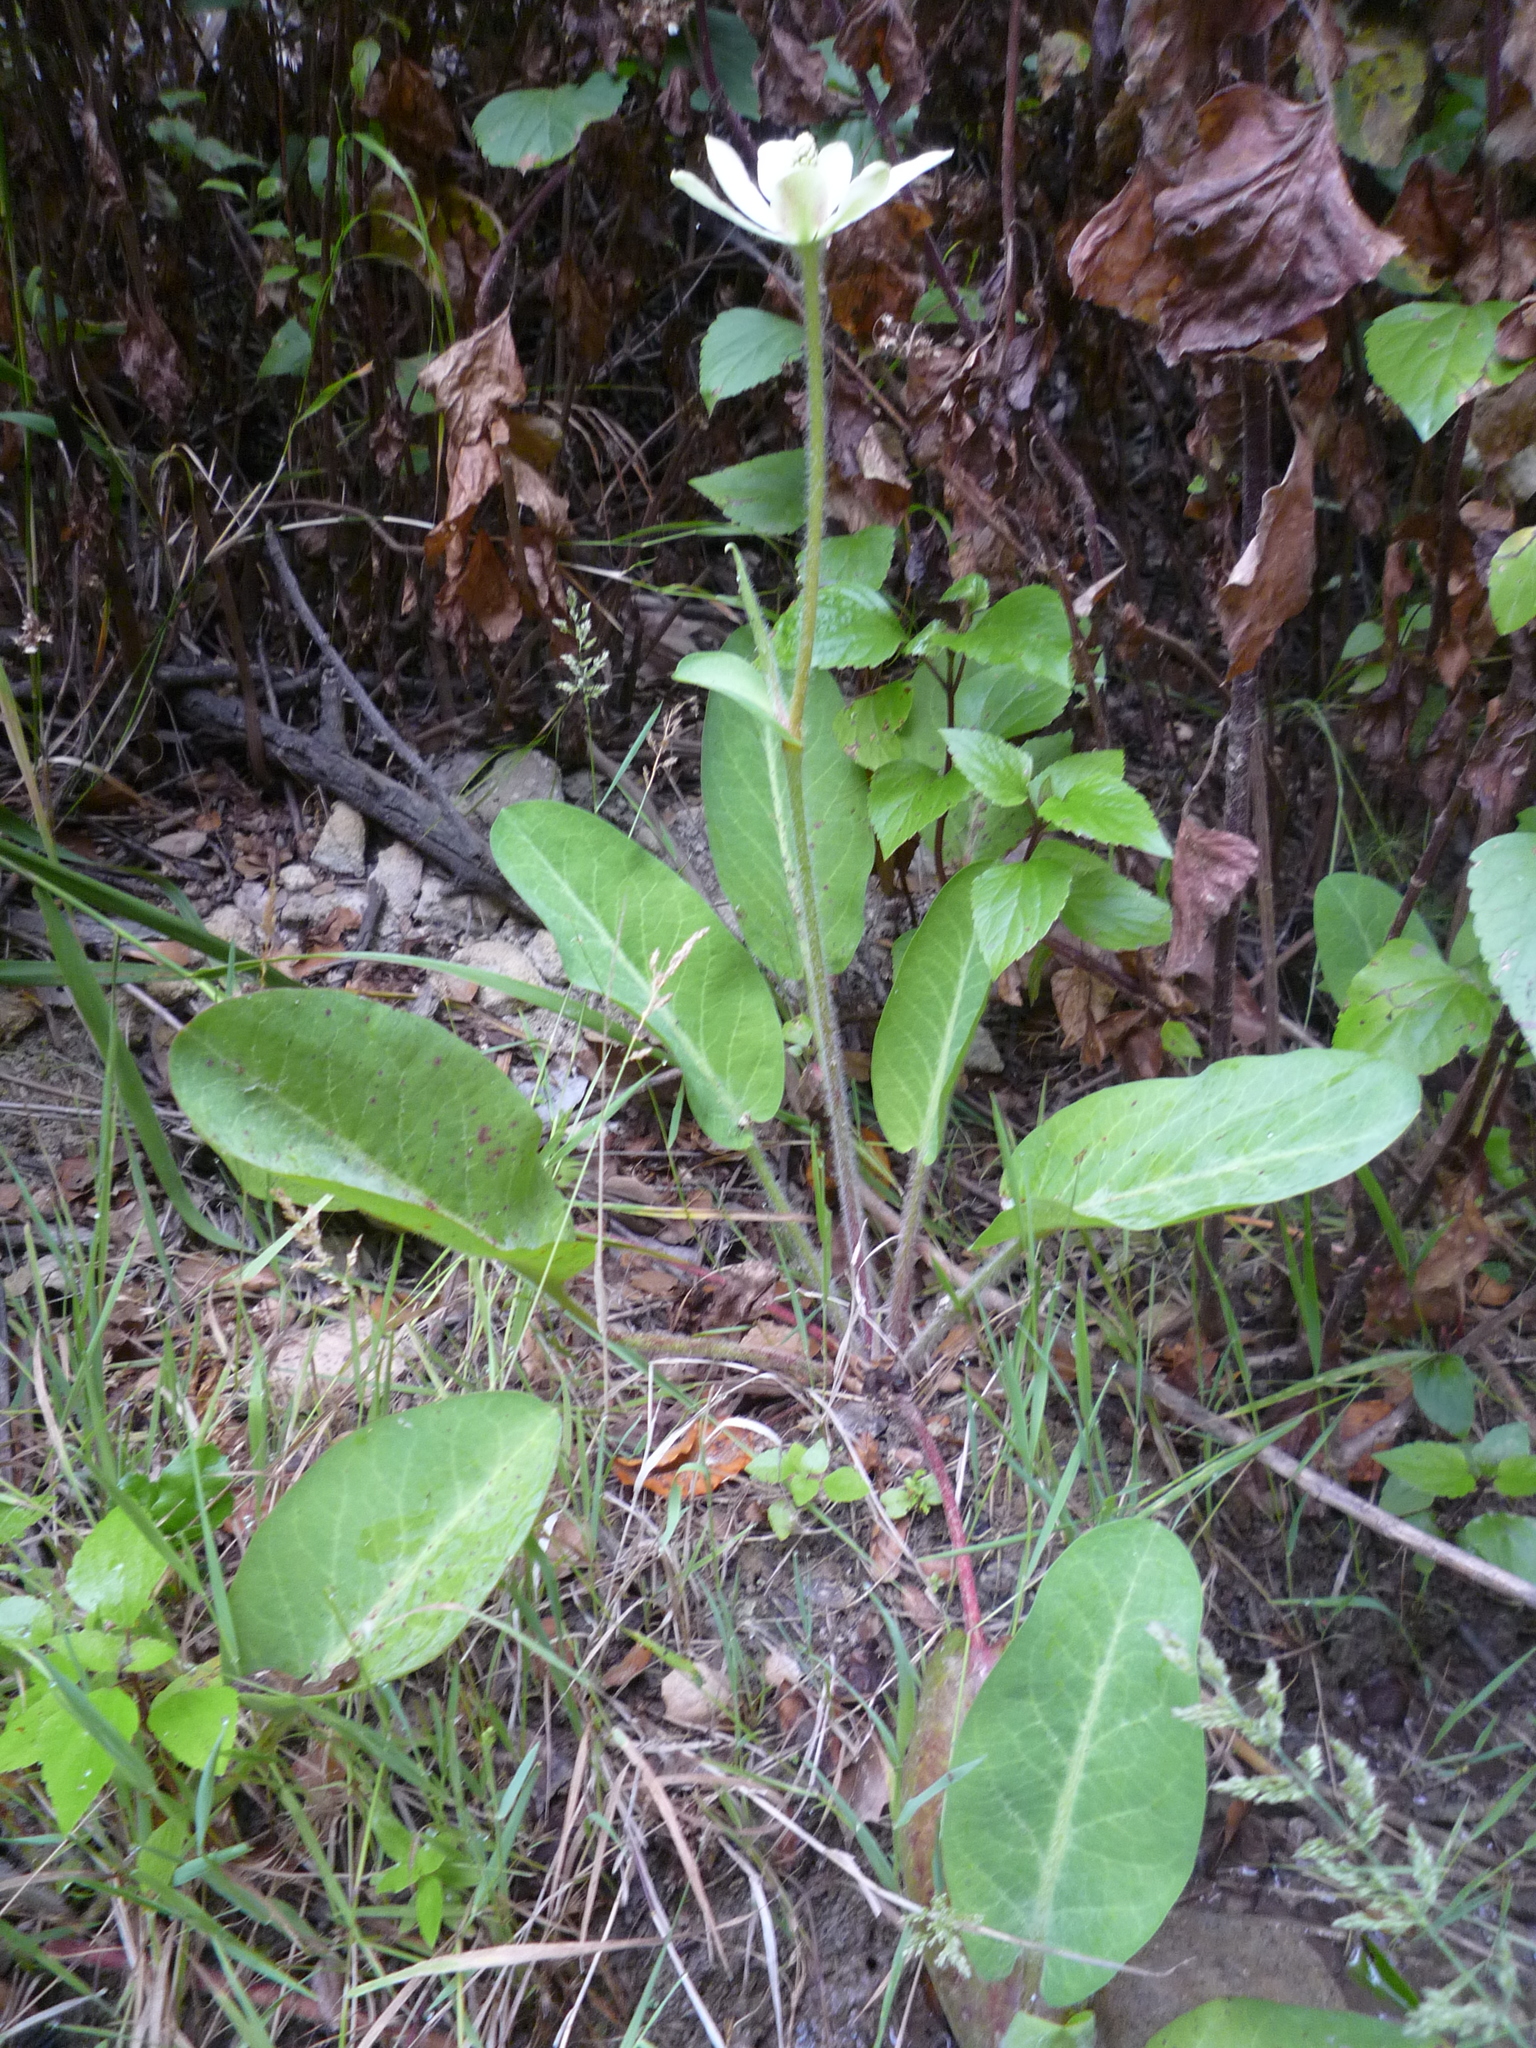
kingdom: Plantae
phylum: Tracheophyta
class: Magnoliopsida
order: Piperales
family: Saururaceae
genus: Anemopsis
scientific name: Anemopsis californica
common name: Apache-beads
